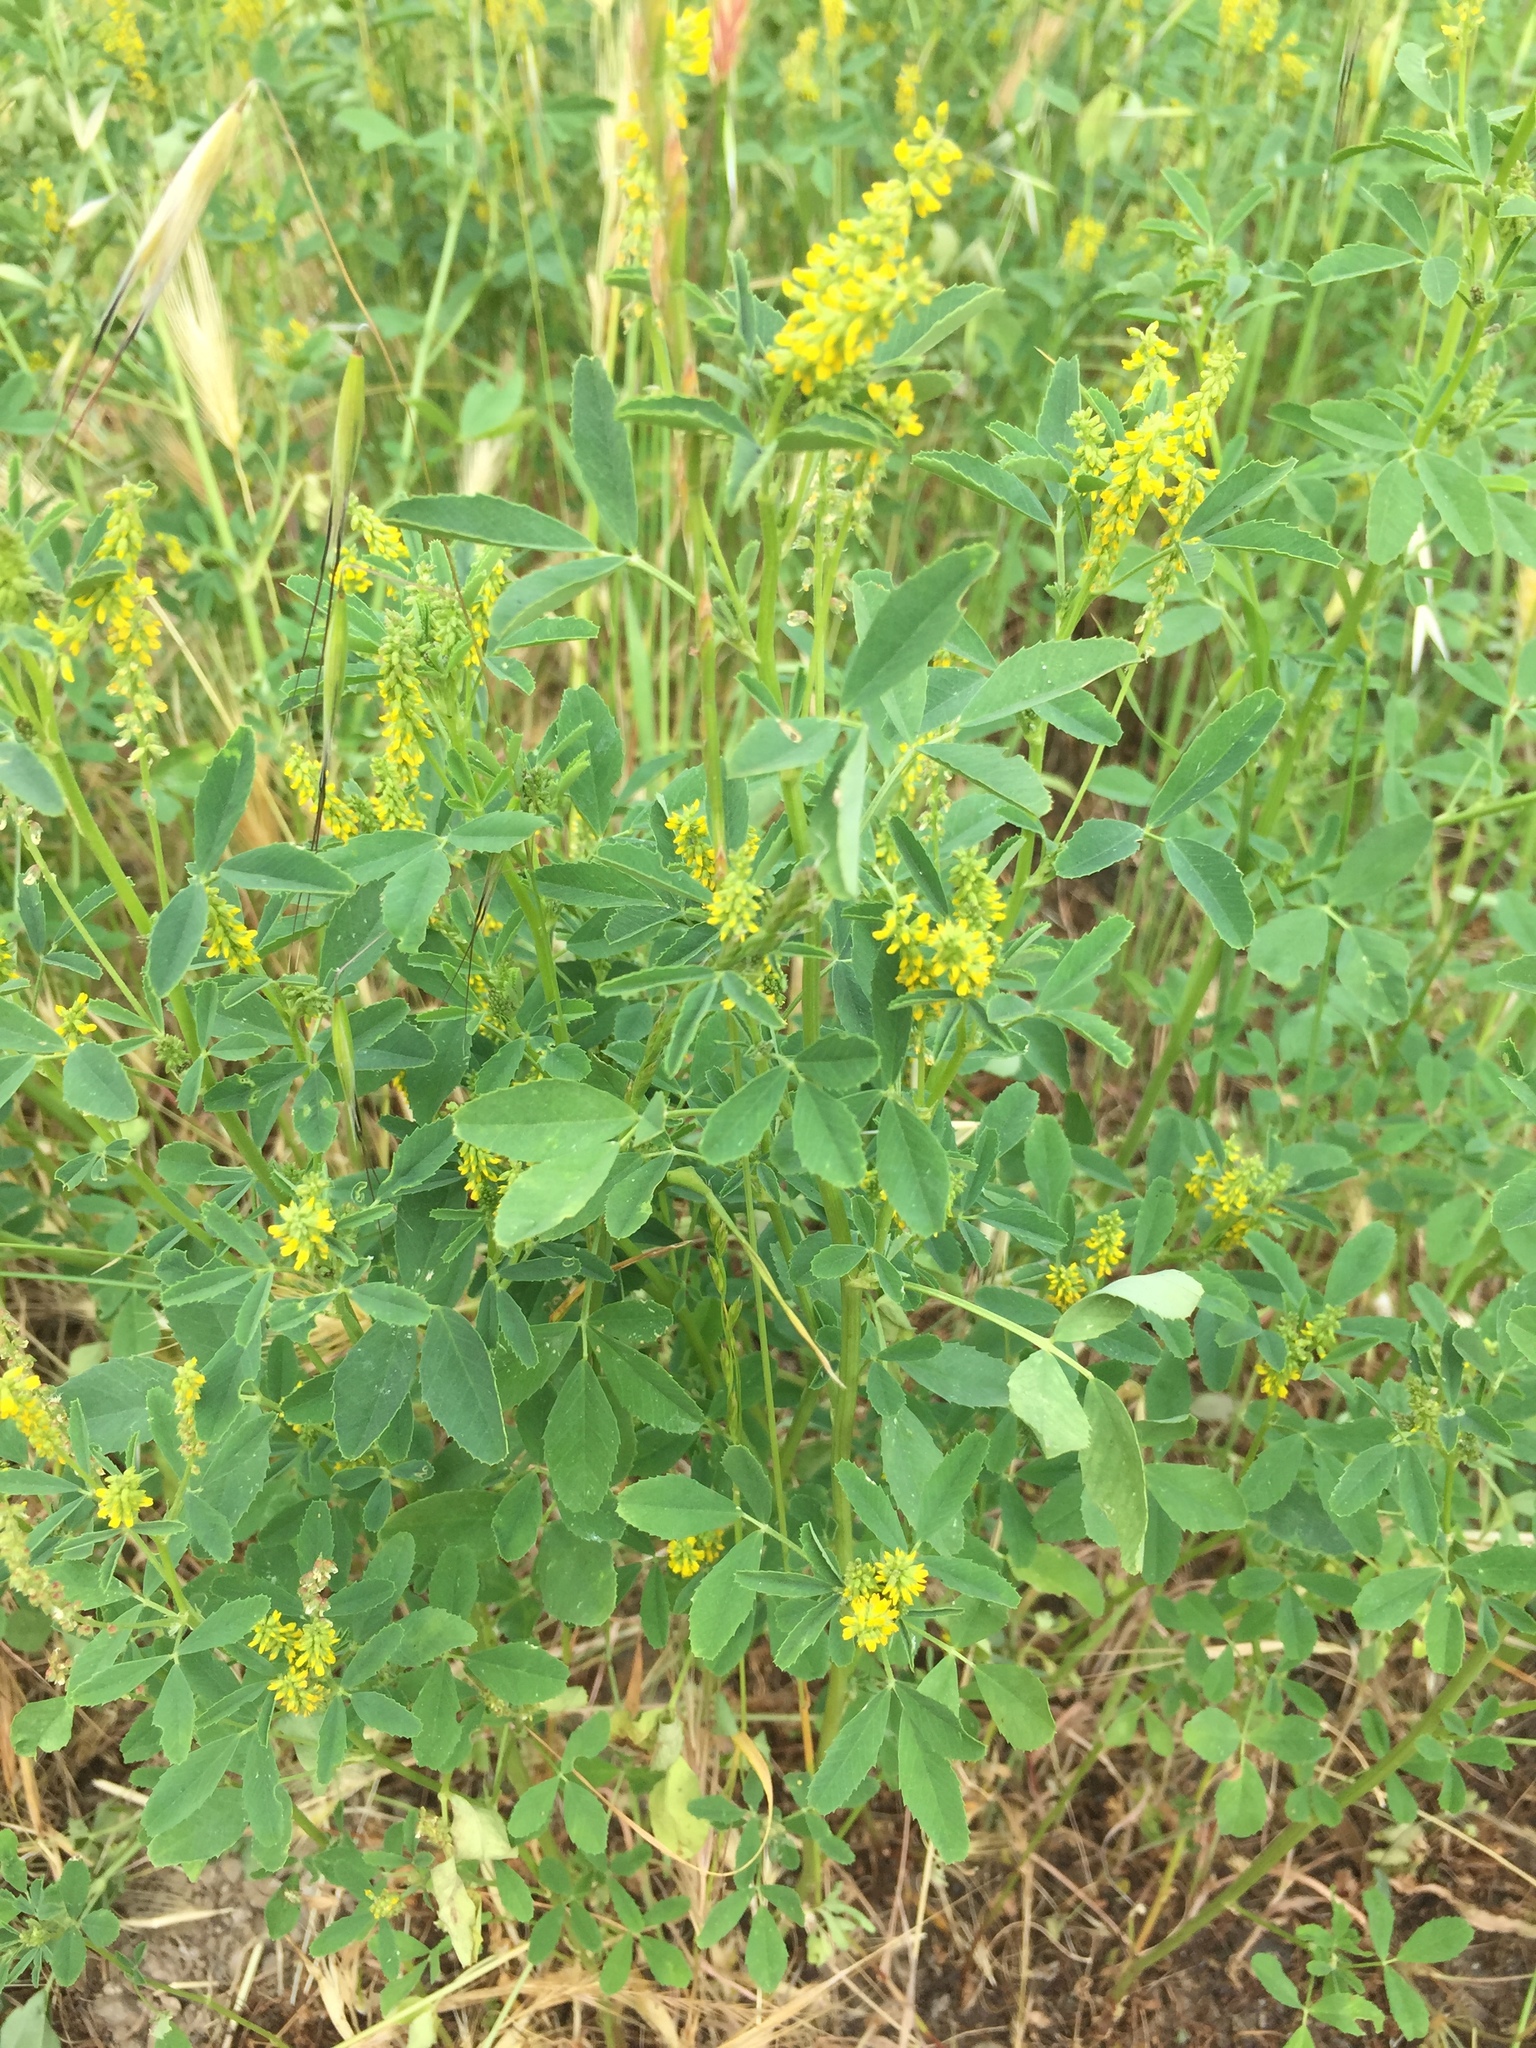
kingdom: Plantae
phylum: Tracheophyta
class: Magnoliopsida
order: Fabales
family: Fabaceae
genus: Melilotus
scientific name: Melilotus indicus
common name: Small melilot
